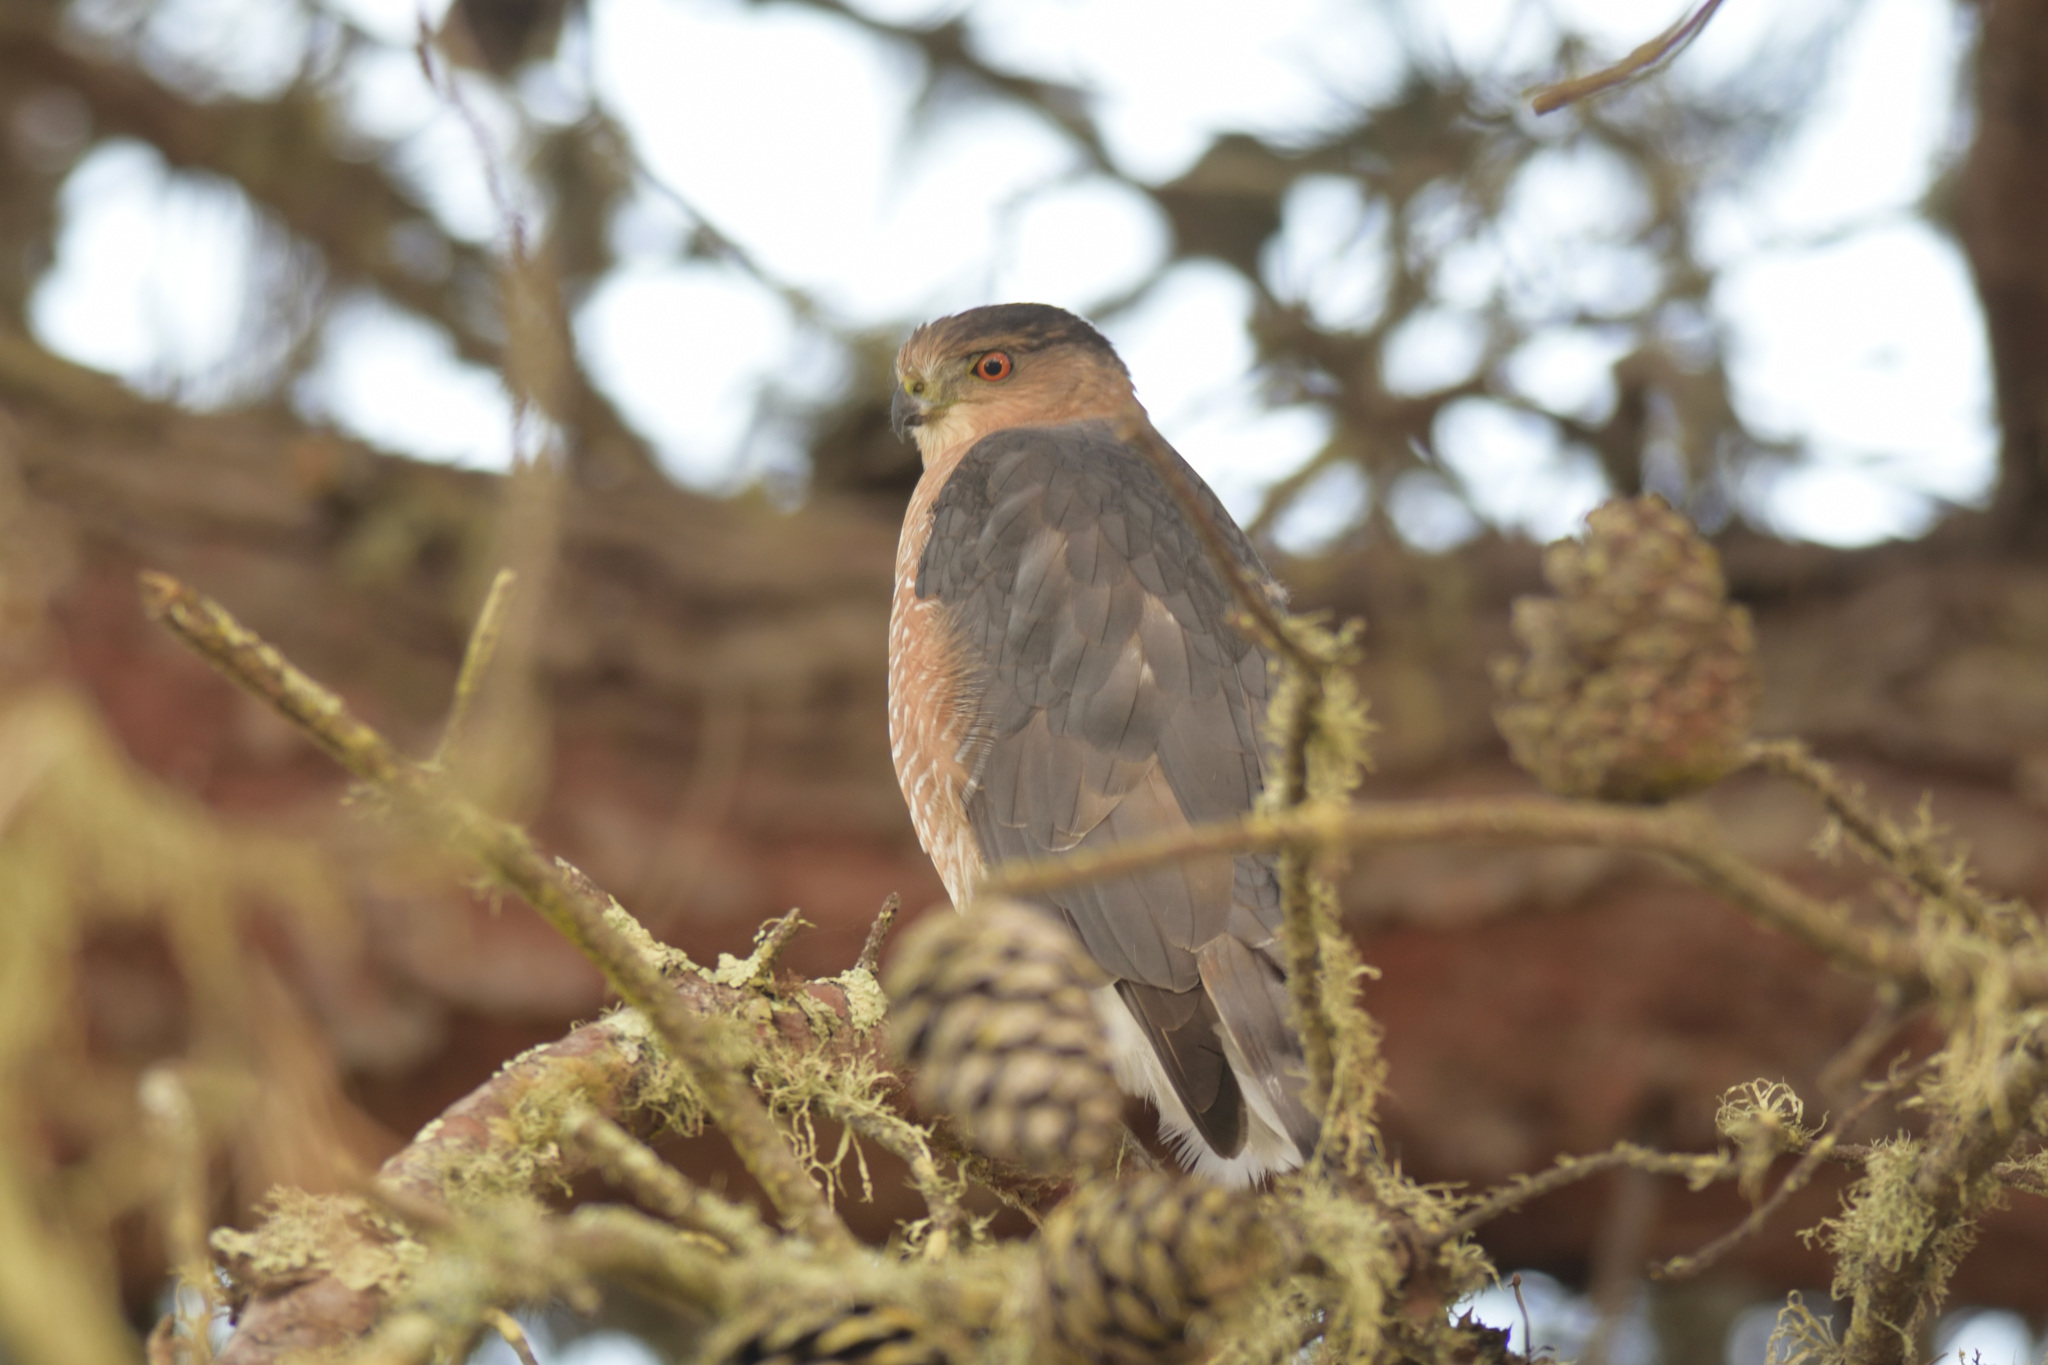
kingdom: Animalia
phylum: Chordata
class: Aves
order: Accipitriformes
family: Accipitridae
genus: Accipiter
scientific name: Accipiter cooperii
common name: Cooper's hawk
